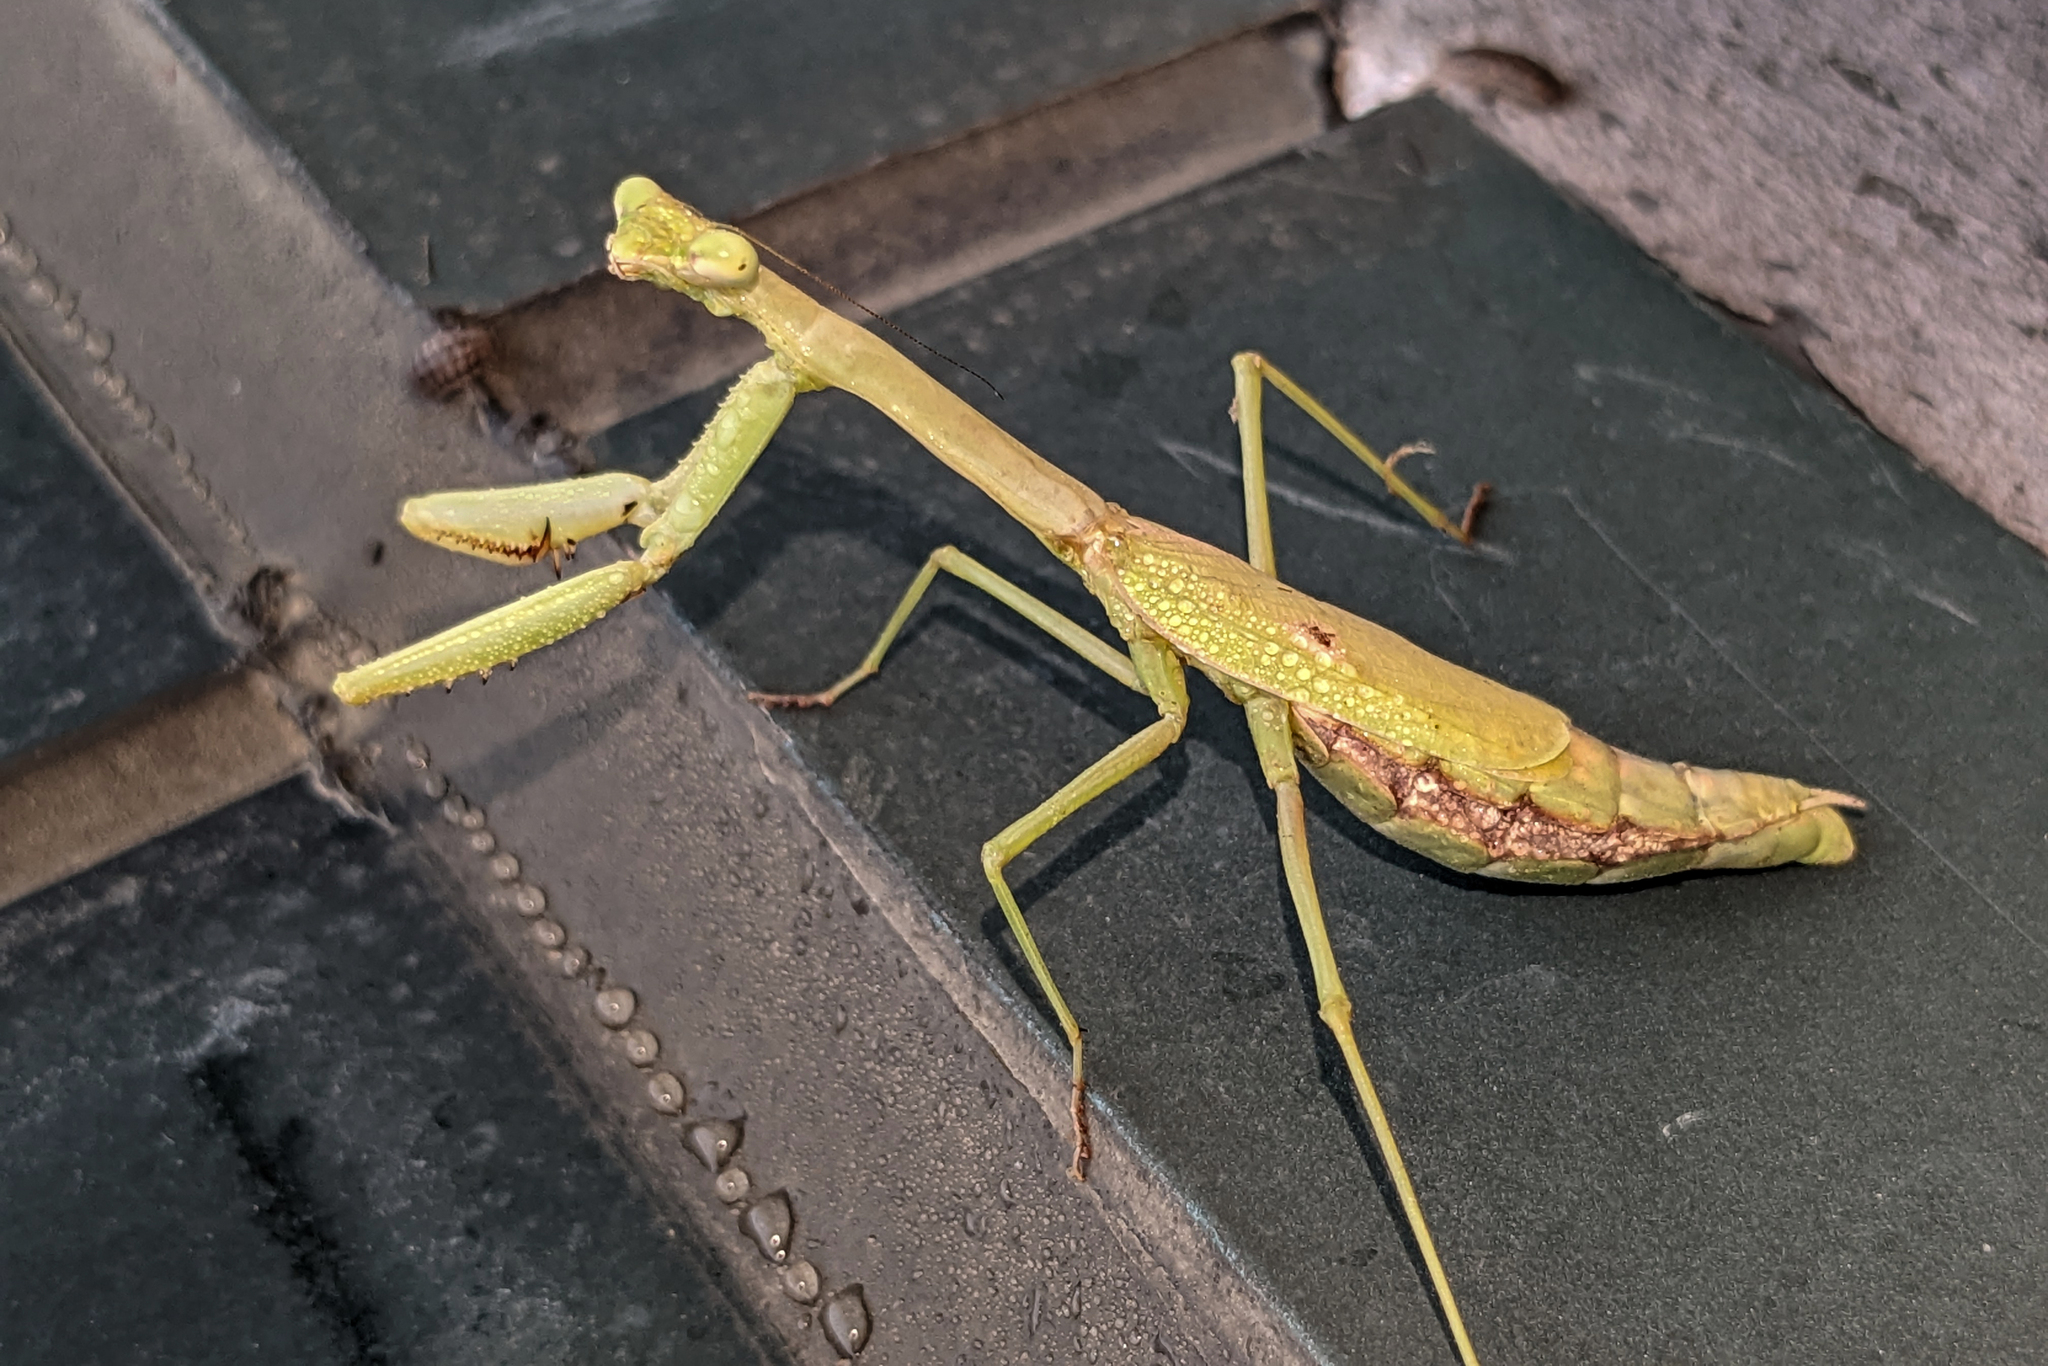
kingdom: Animalia
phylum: Arthropoda
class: Insecta
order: Mantodea
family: Mantidae
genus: Stagmomantis
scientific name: Stagmomantis carolina
